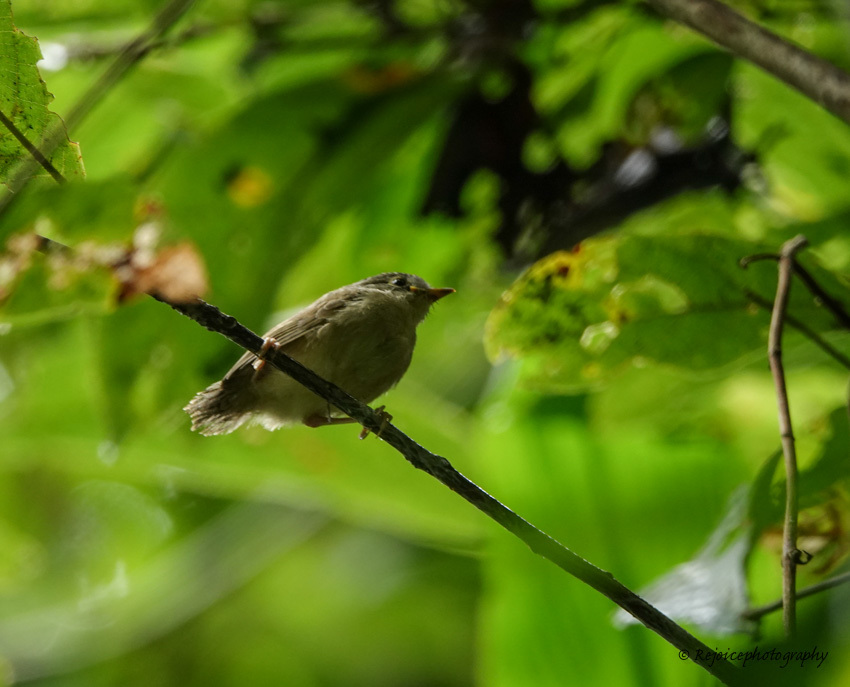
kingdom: Animalia
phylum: Chordata
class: Aves
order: Passeriformes
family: Pellorneidae
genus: Alcippe
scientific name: Alcippe nipalensis
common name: Nepal fulvetta
